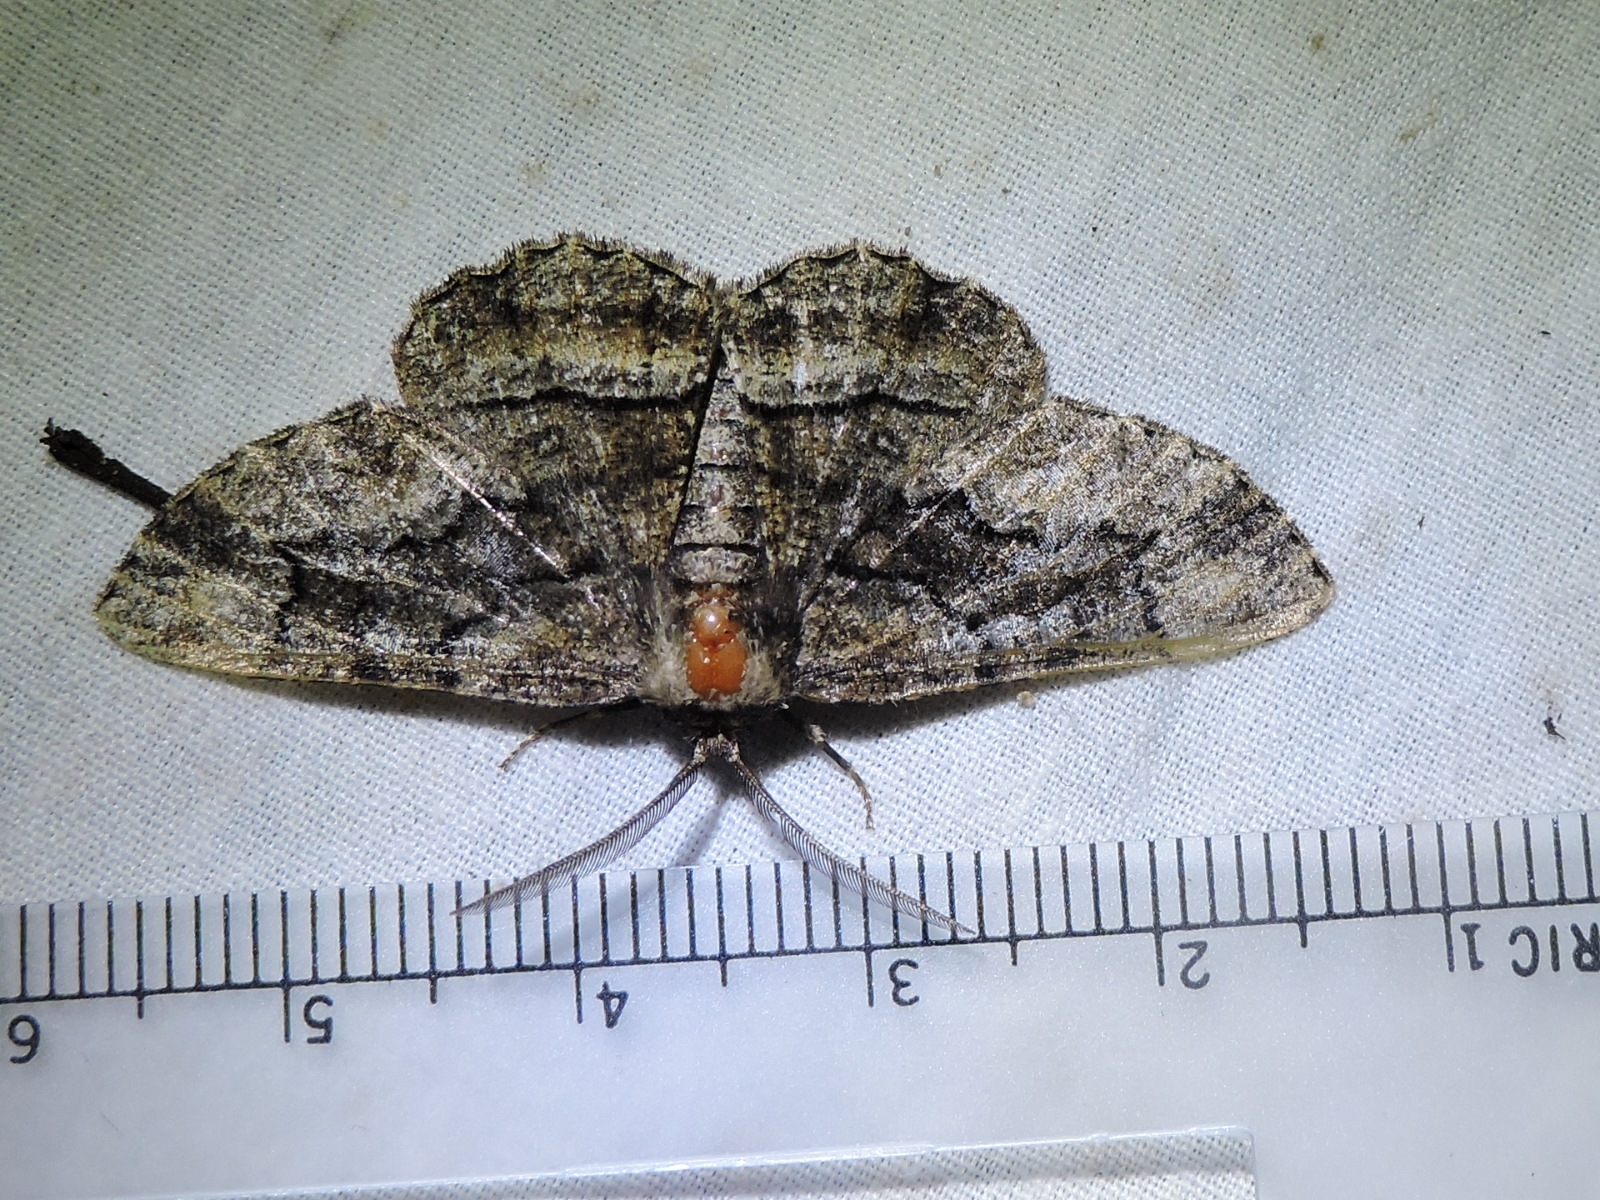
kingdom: Animalia
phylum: Arthropoda
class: Insecta
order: Lepidoptera
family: Geometridae
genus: Phaeoura
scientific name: Phaeoura cristifera
